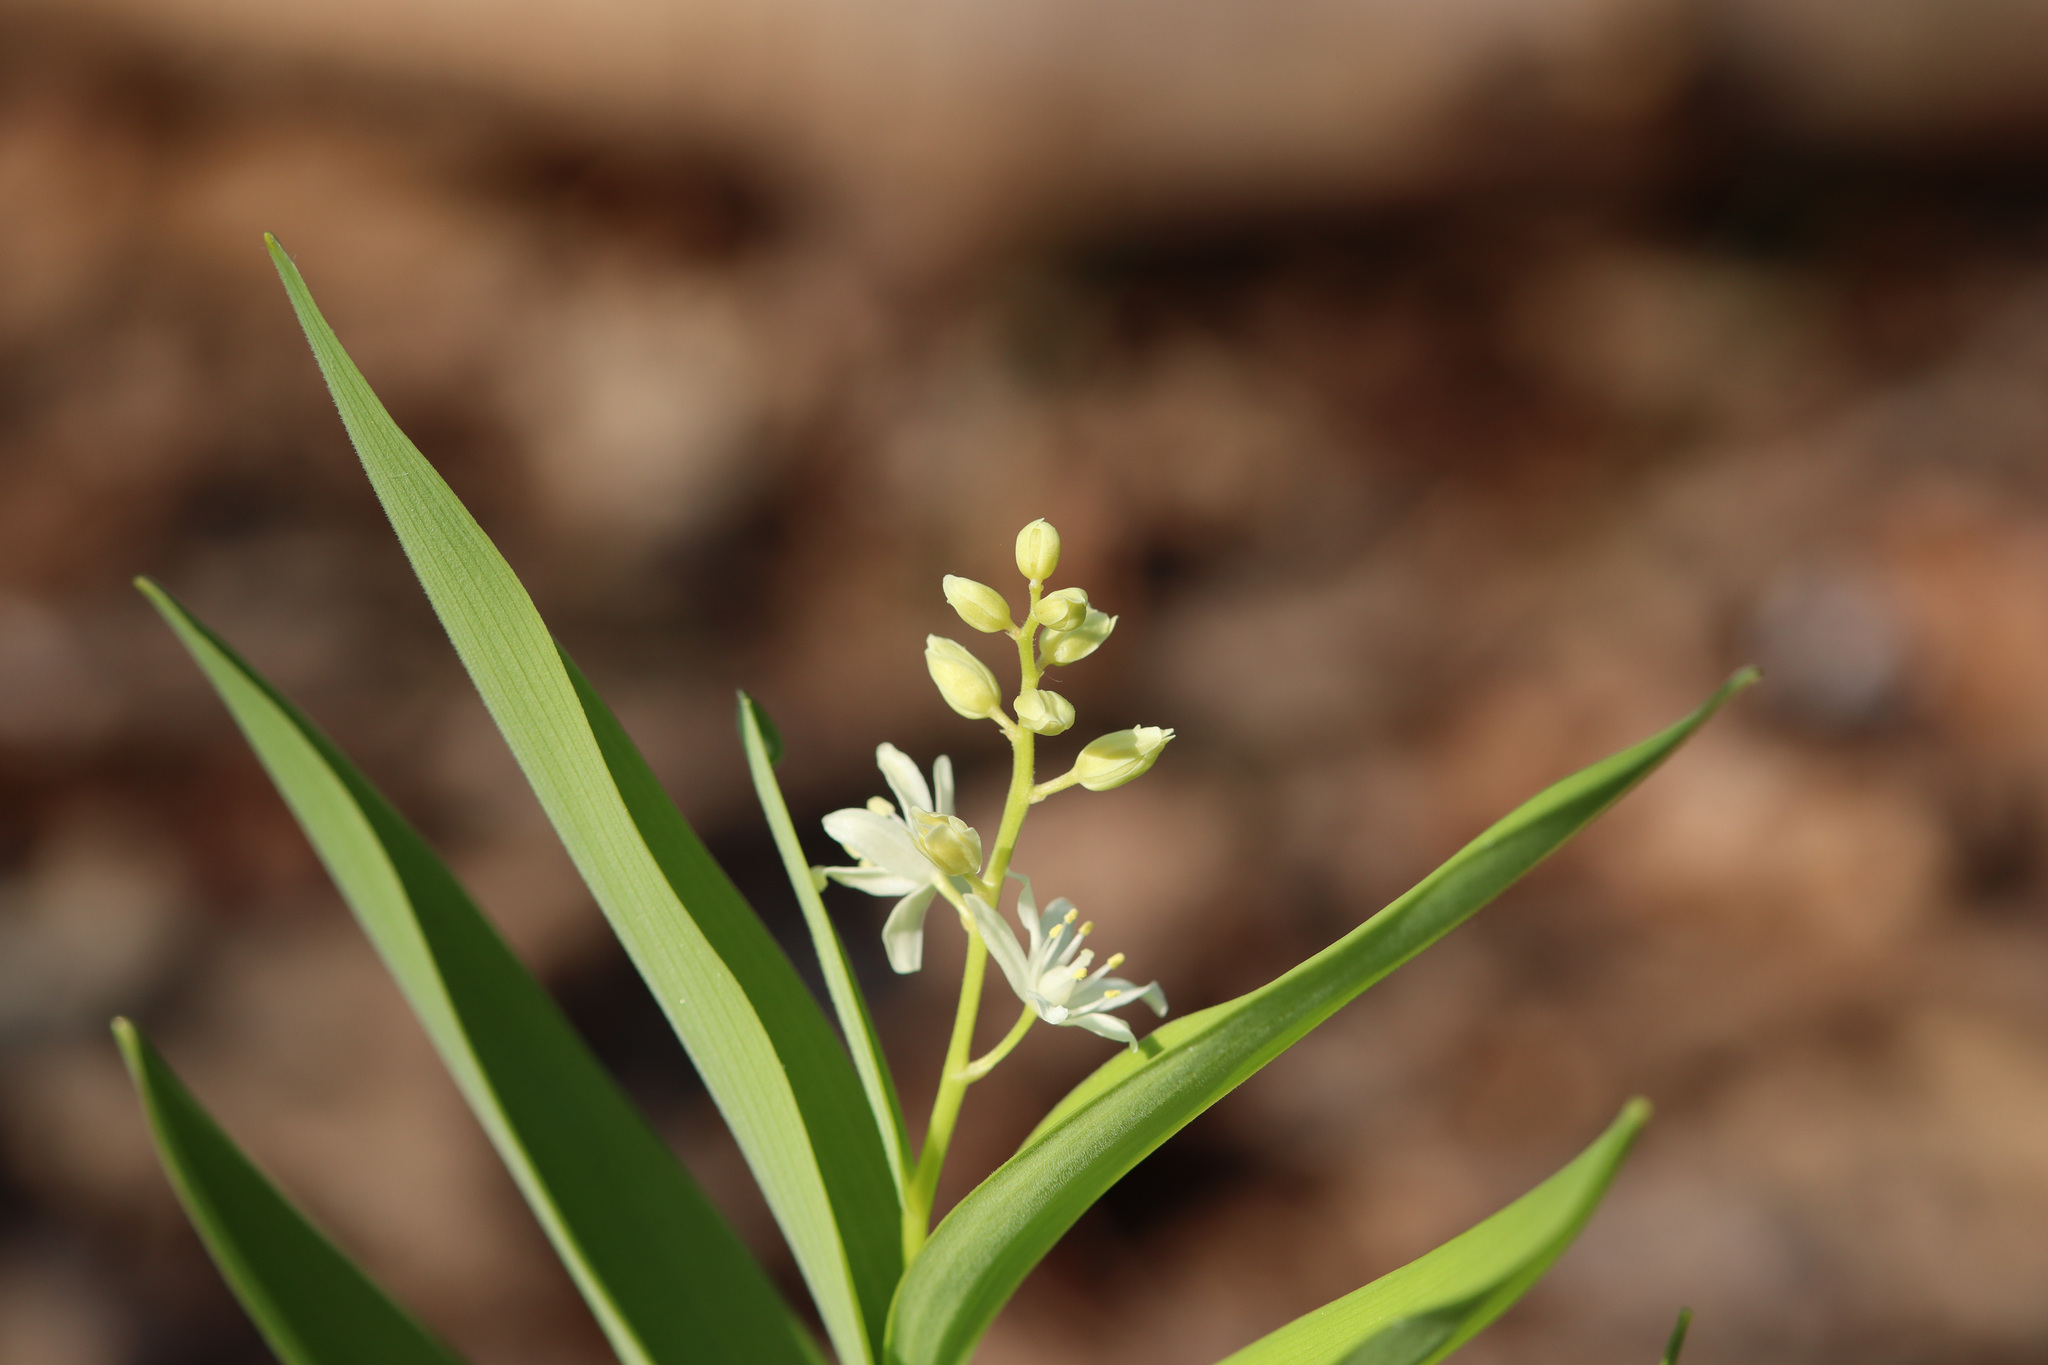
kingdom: Plantae
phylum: Tracheophyta
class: Liliopsida
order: Asparagales
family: Asparagaceae
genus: Maianthemum
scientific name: Maianthemum stellatum
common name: Little false solomon's seal
